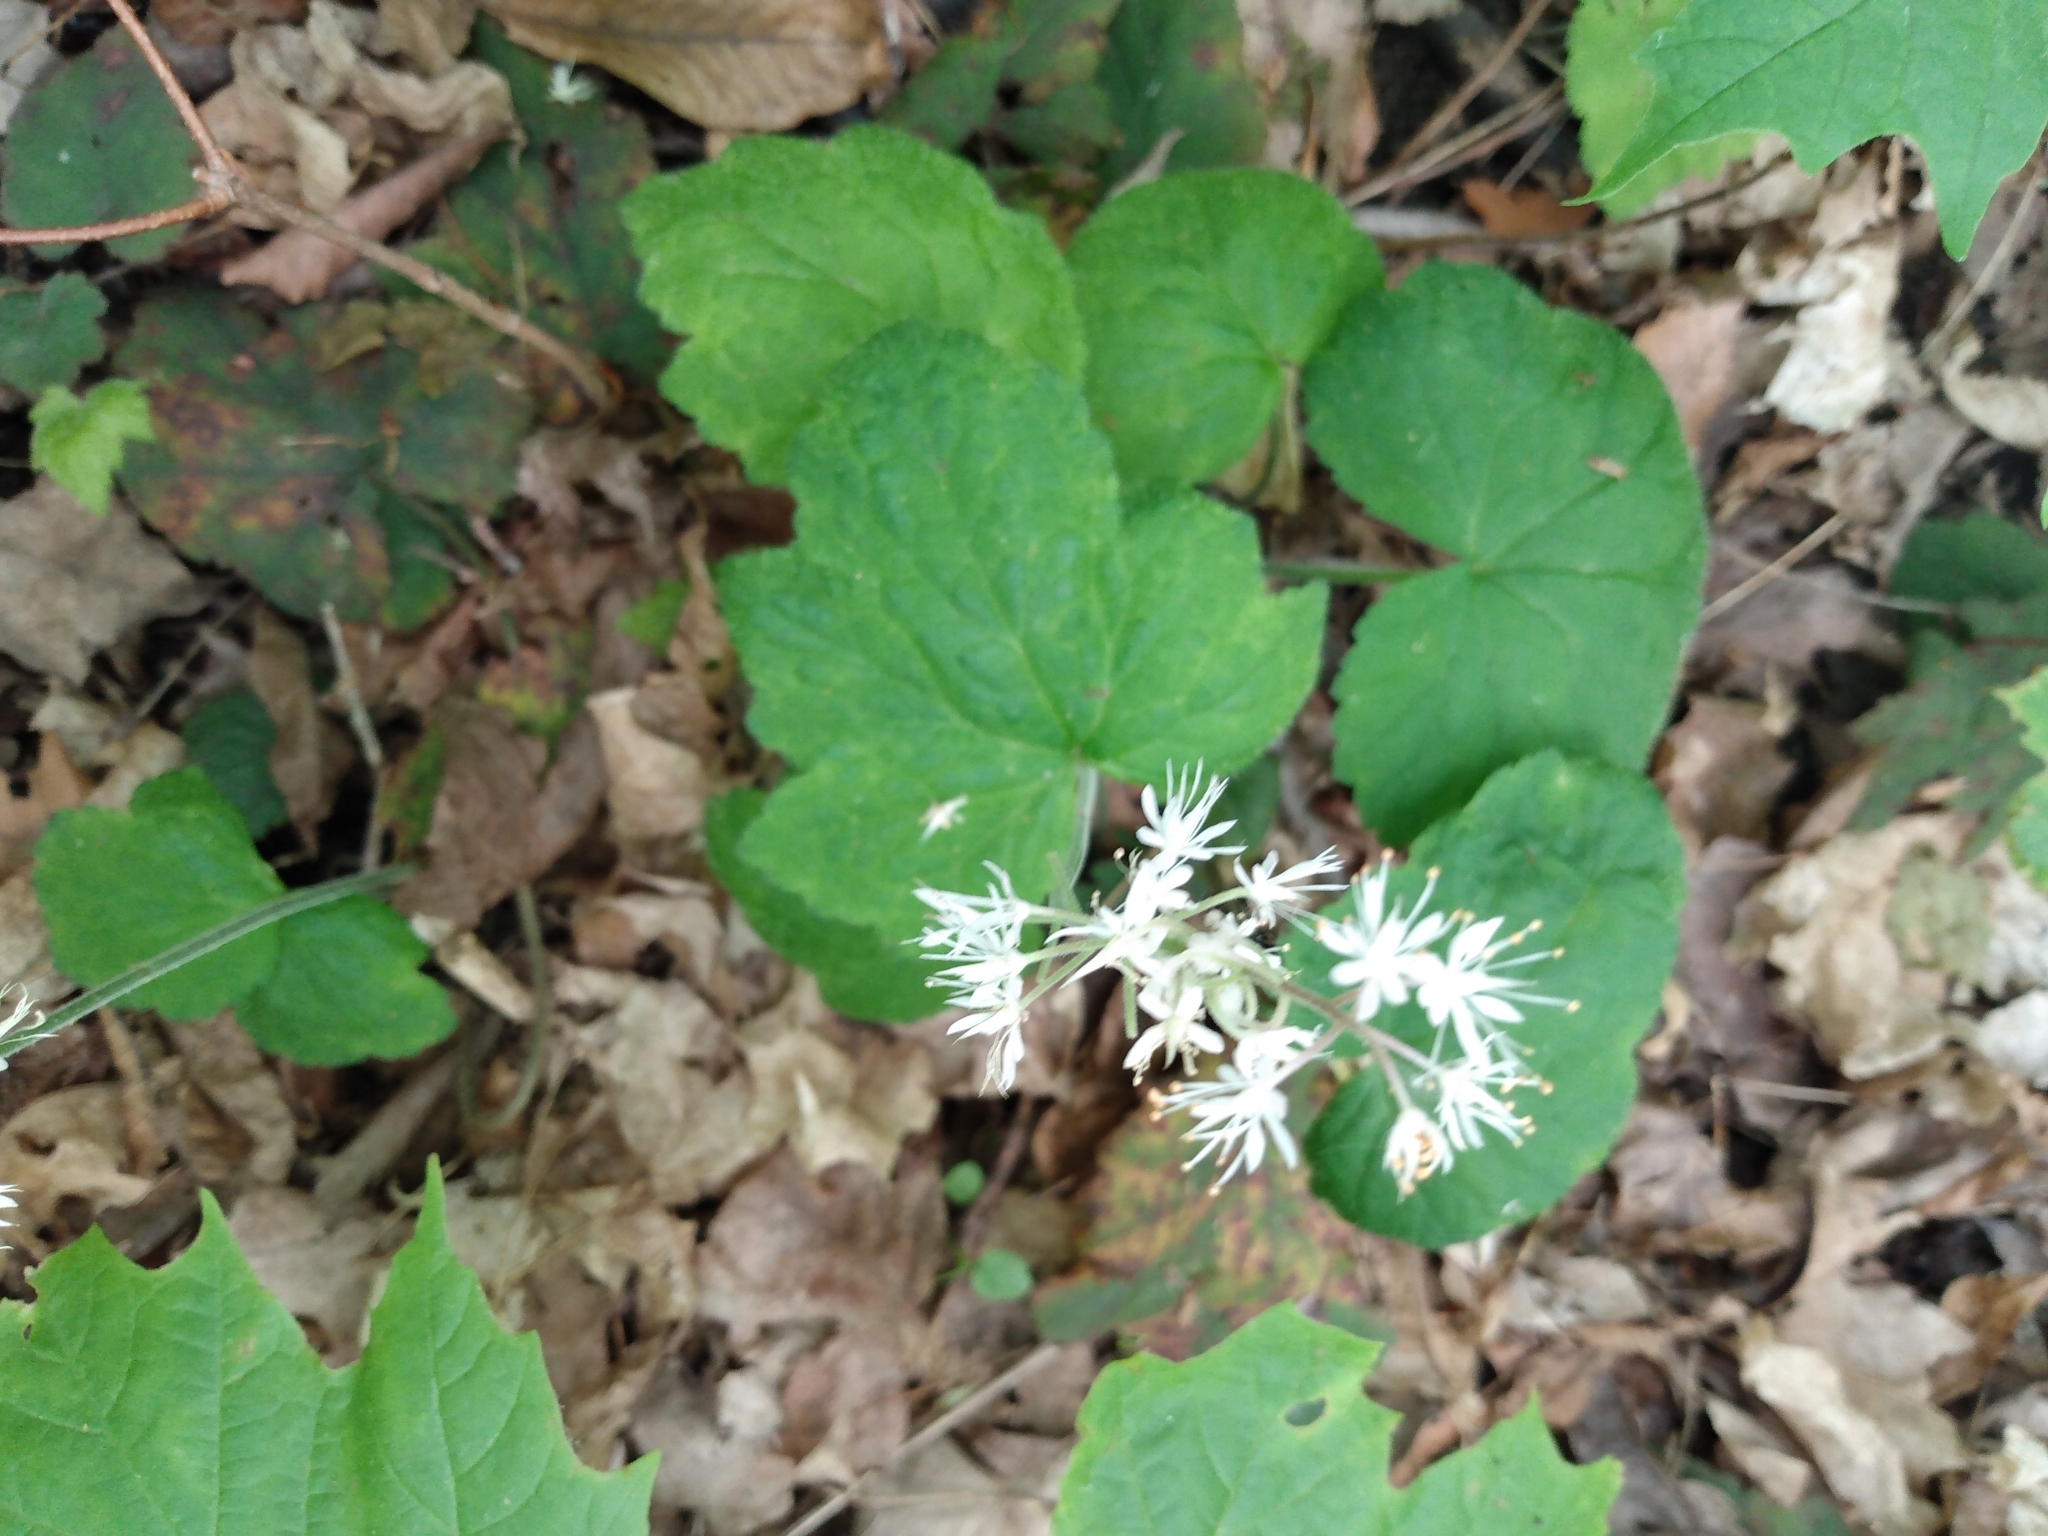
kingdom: Plantae
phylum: Tracheophyta
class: Magnoliopsida
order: Saxifragales
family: Saxifragaceae
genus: Tiarella
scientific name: Tiarella stolonifera
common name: Stoloniferous foamflower
